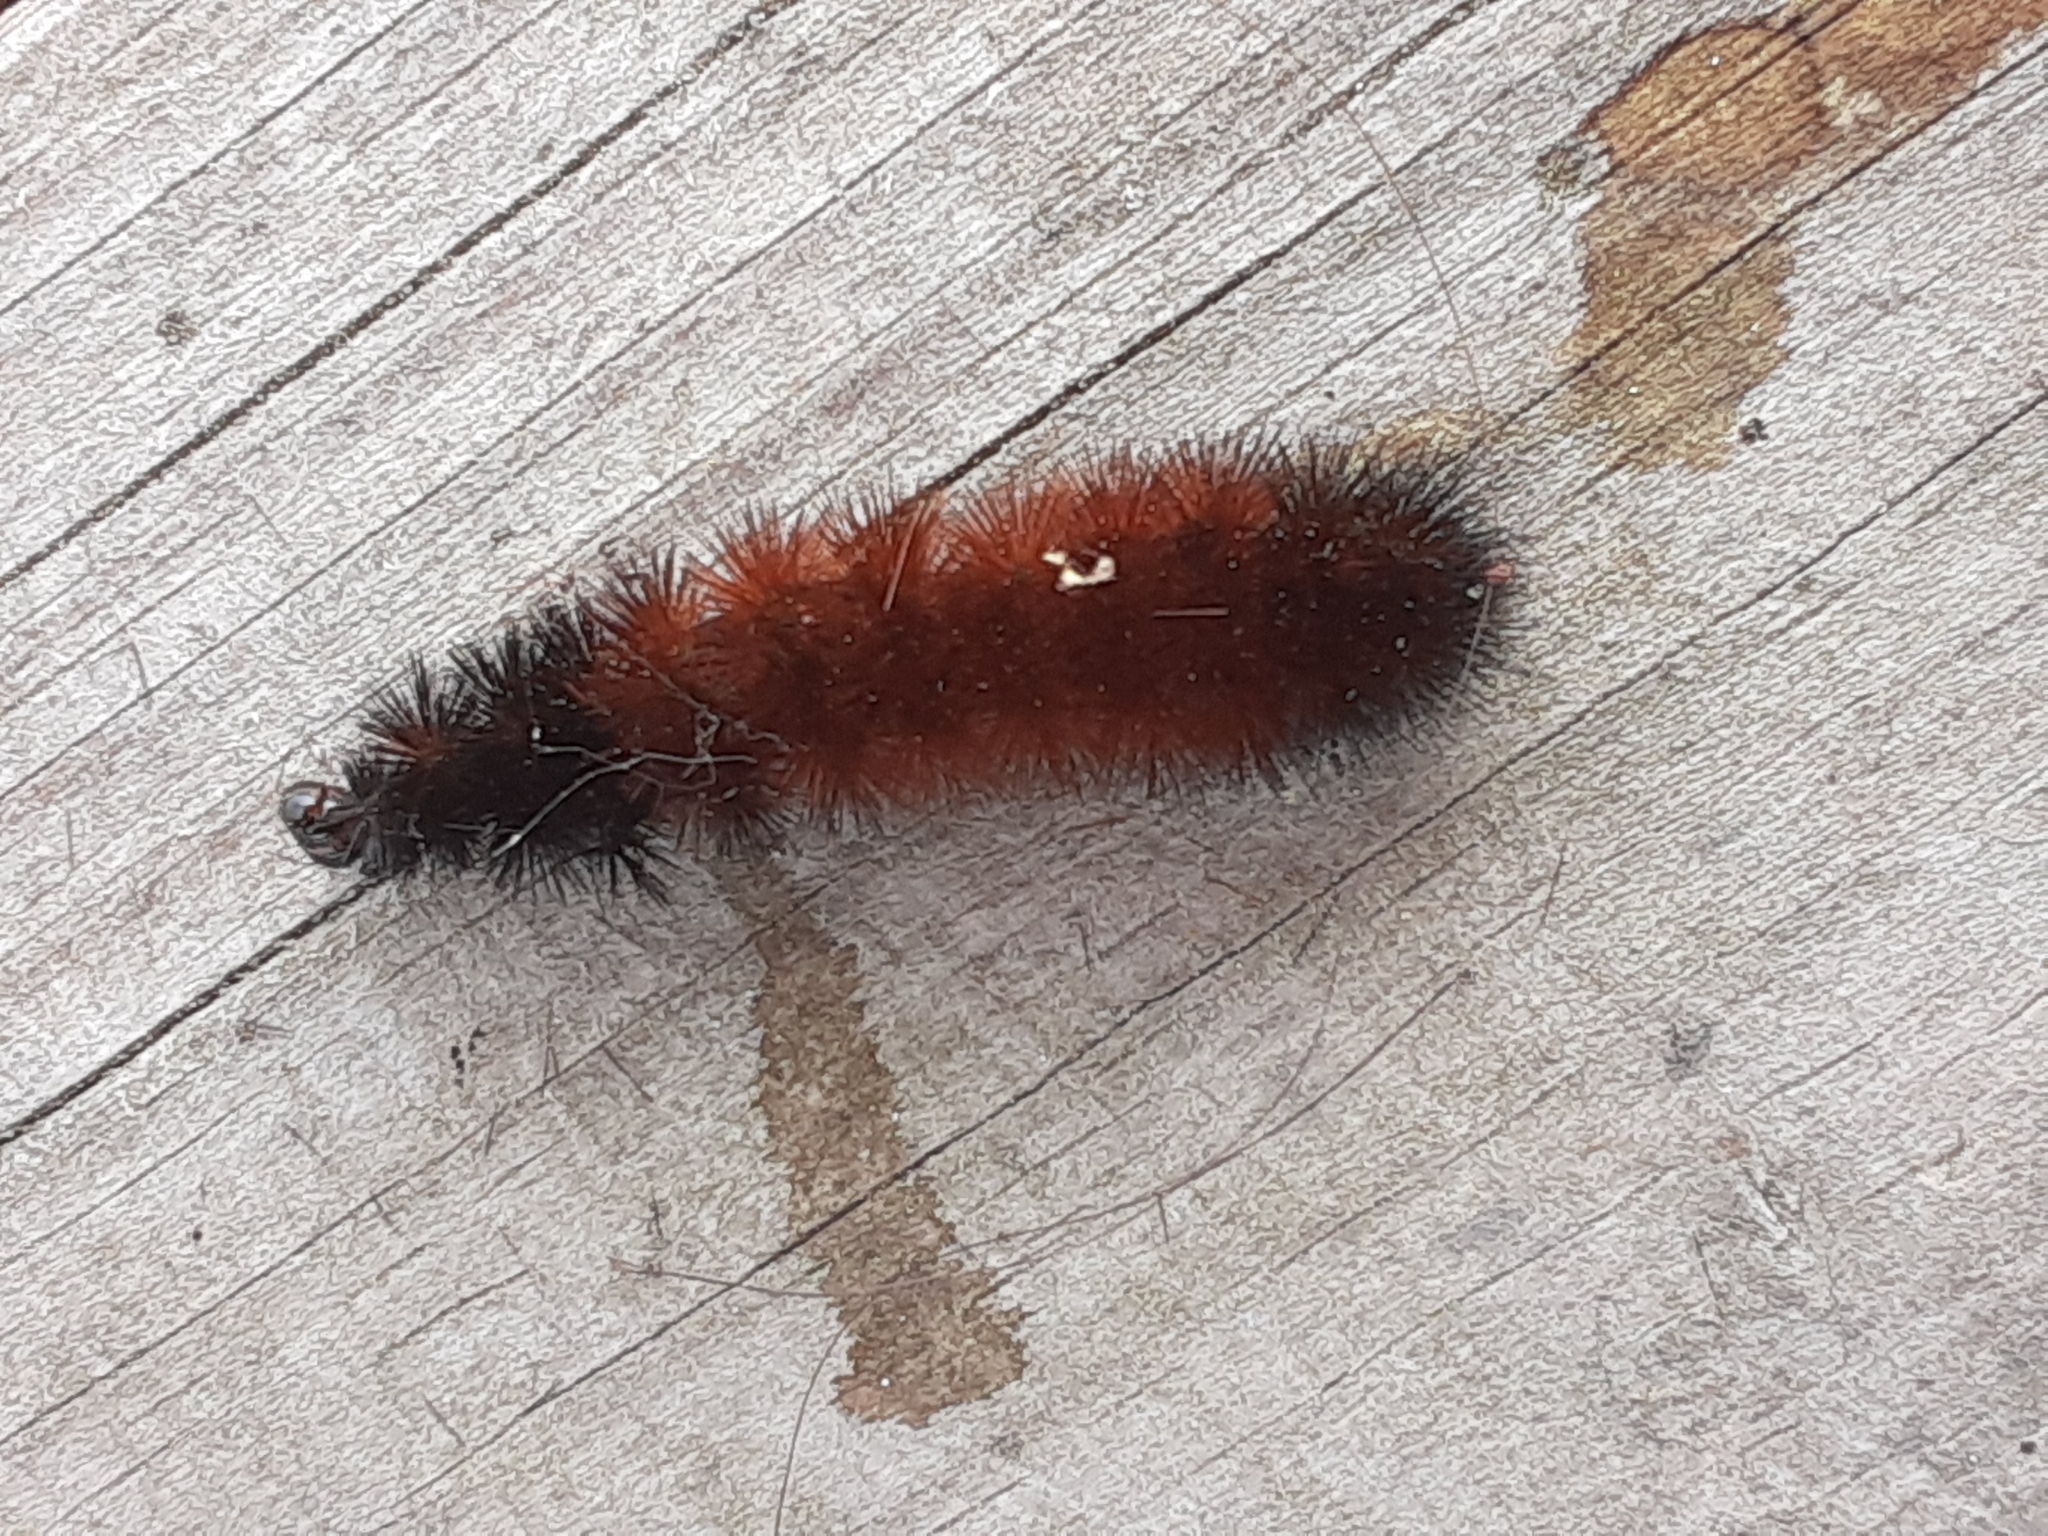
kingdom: Animalia
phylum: Arthropoda
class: Insecta
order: Lepidoptera
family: Erebidae
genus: Pyrrharctia
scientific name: Pyrrharctia isabella
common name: Isabella tiger moth
